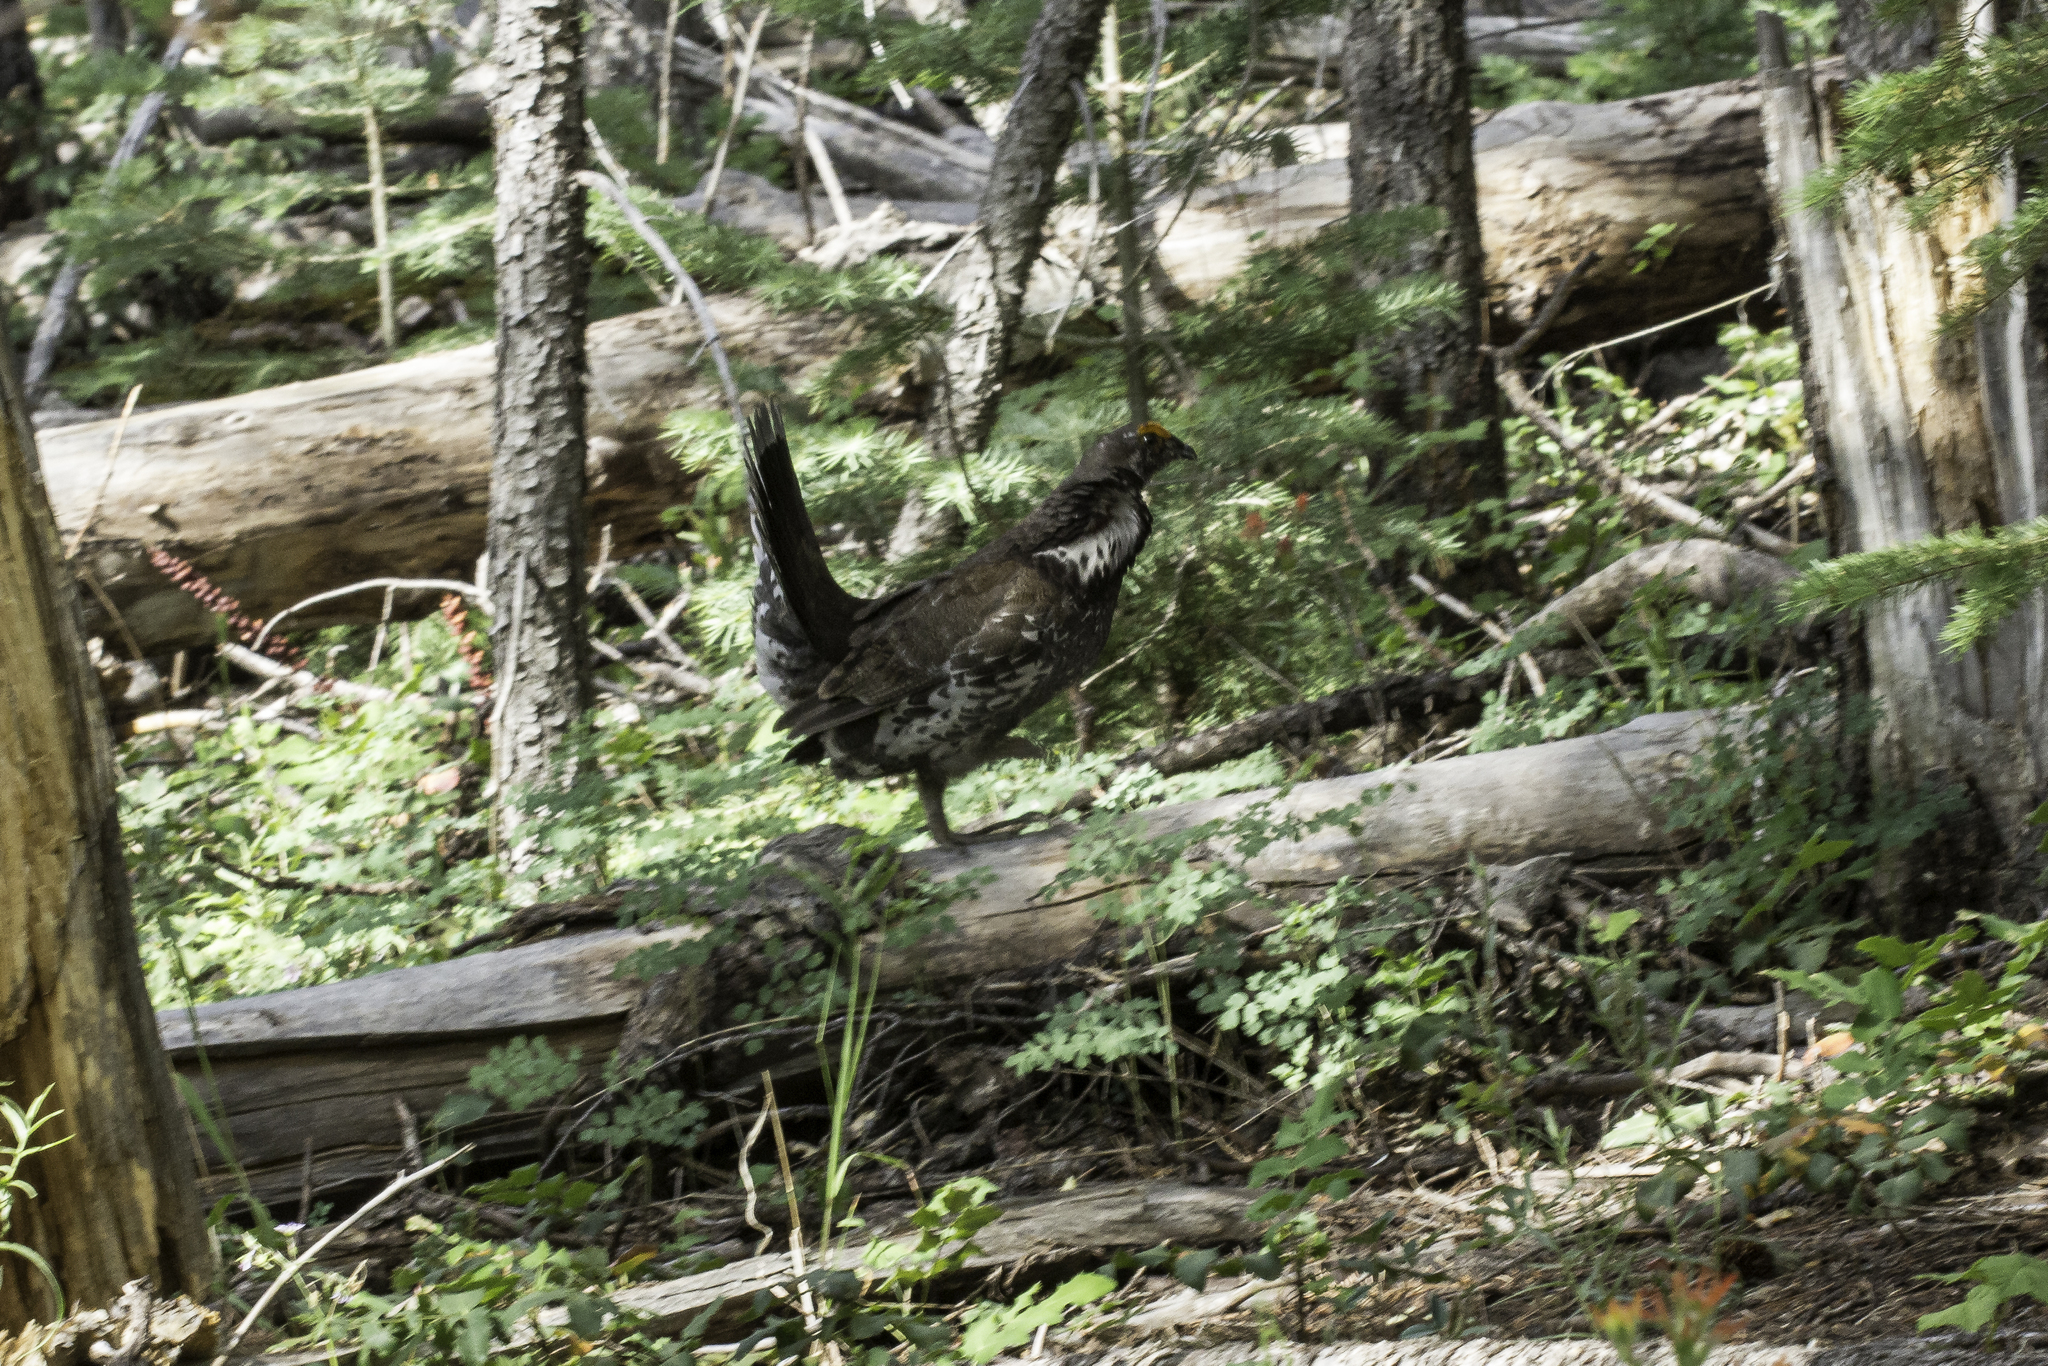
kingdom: Animalia
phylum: Chordata
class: Aves
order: Galliformes
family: Phasianidae
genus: Dendragapus
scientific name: Dendragapus obscurus
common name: Dusky grouse
